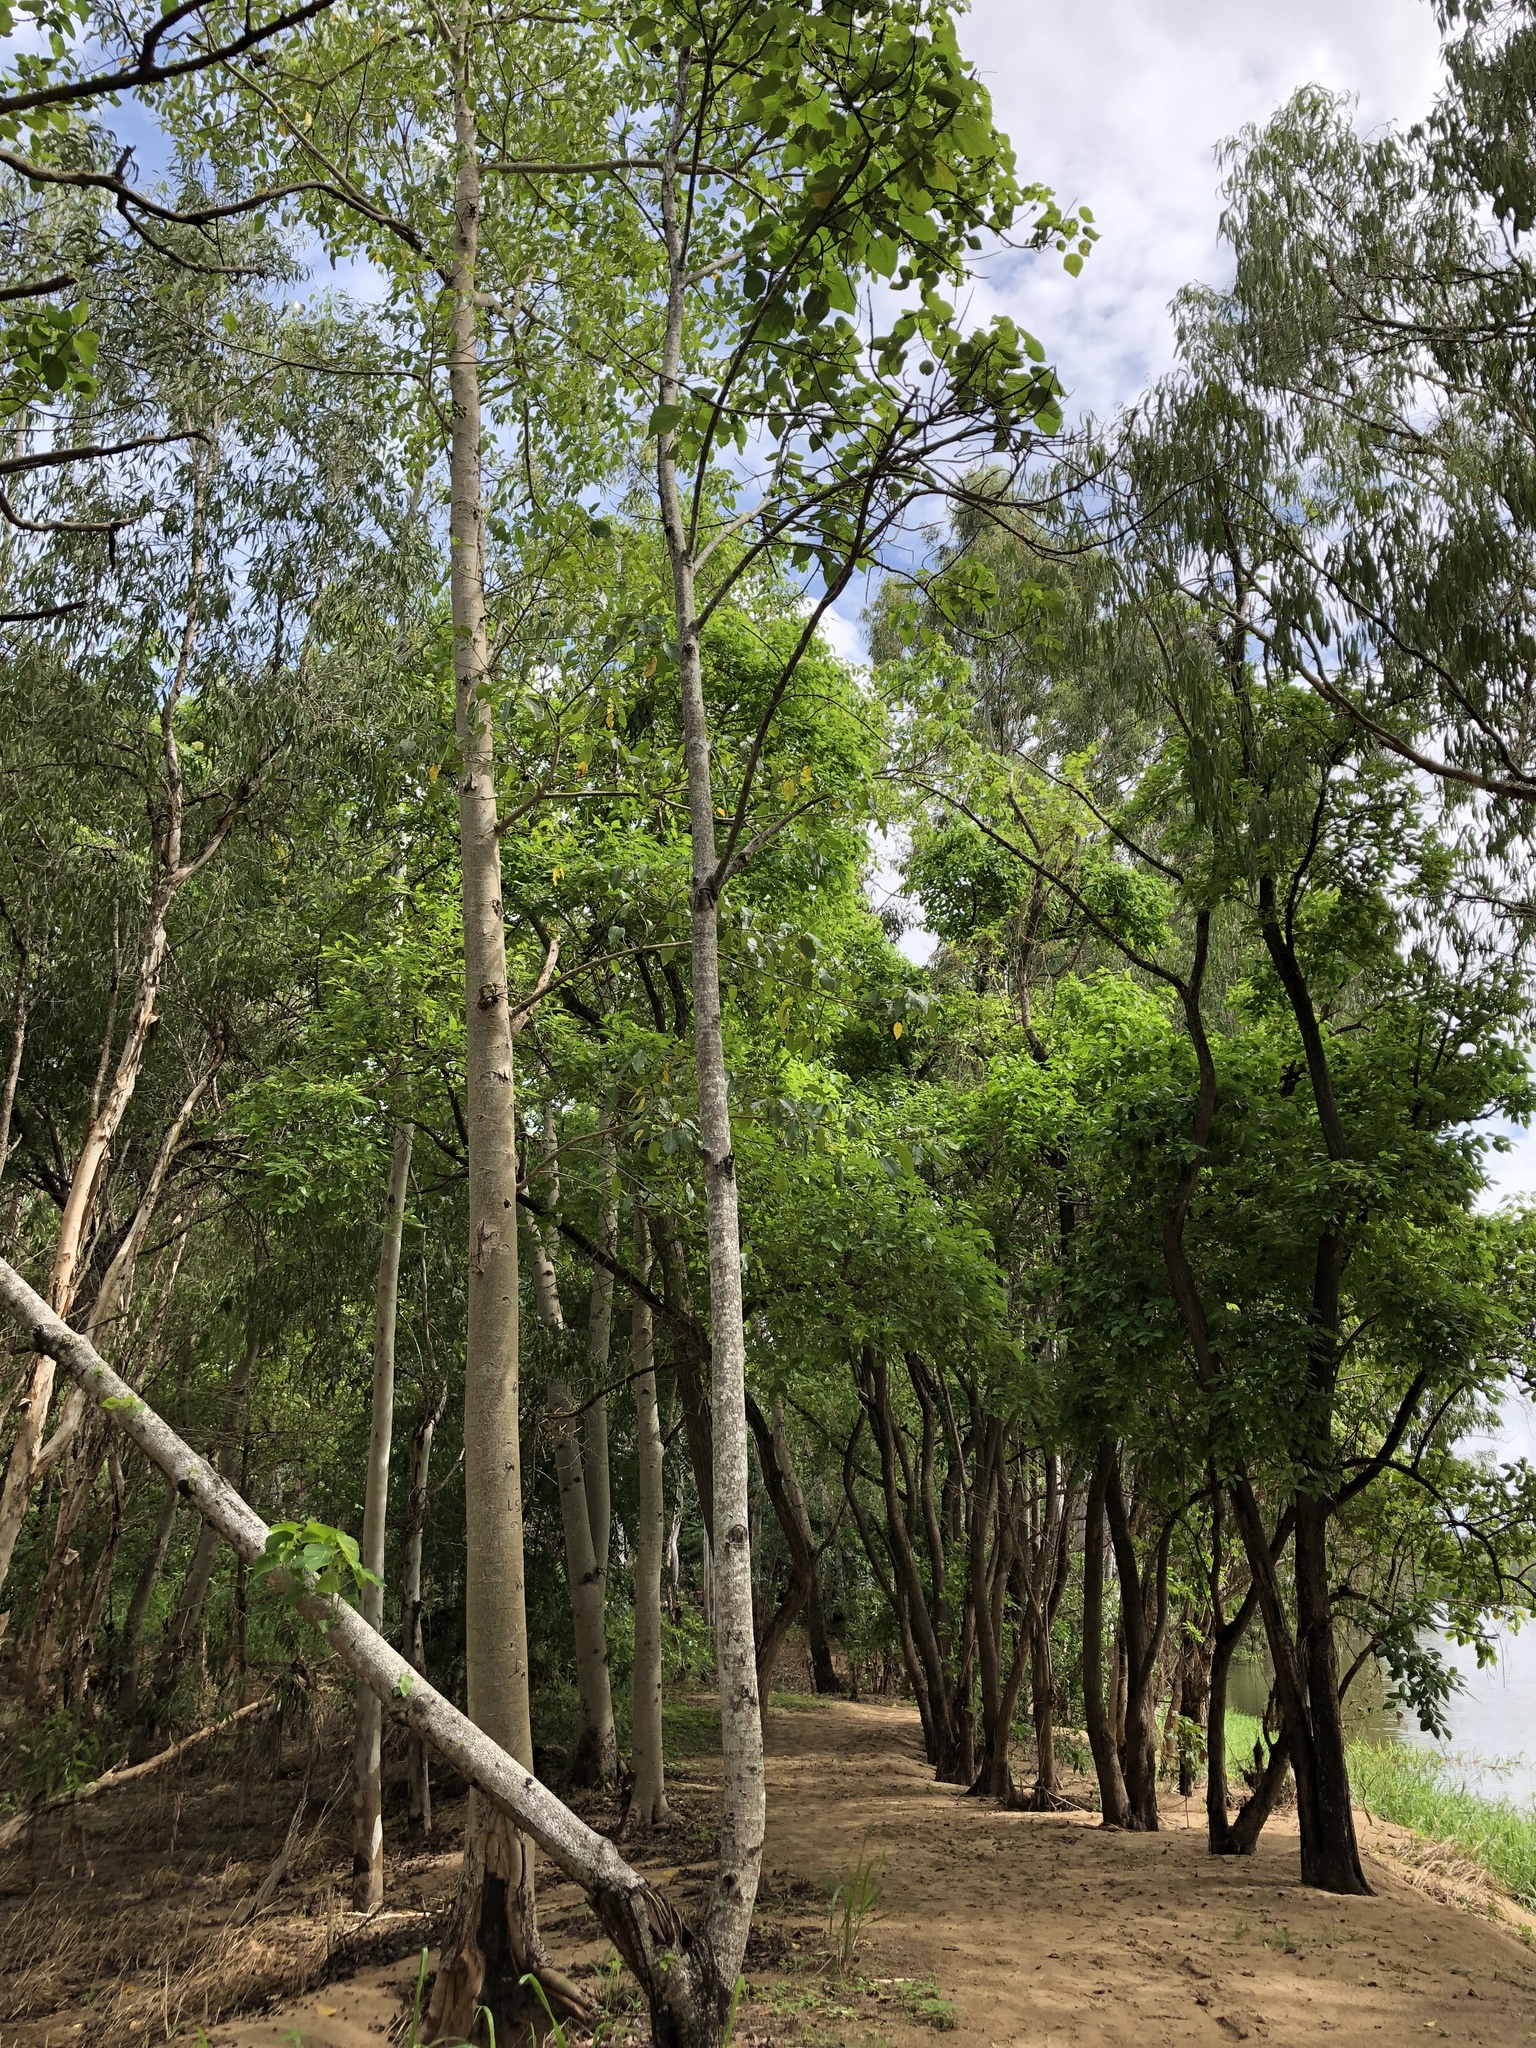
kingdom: Plantae
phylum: Tracheophyta
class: Magnoliopsida
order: Malpighiales
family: Euphorbiaceae
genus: Macaranga
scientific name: Macaranga tanarius
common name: Parasol leaf tree
